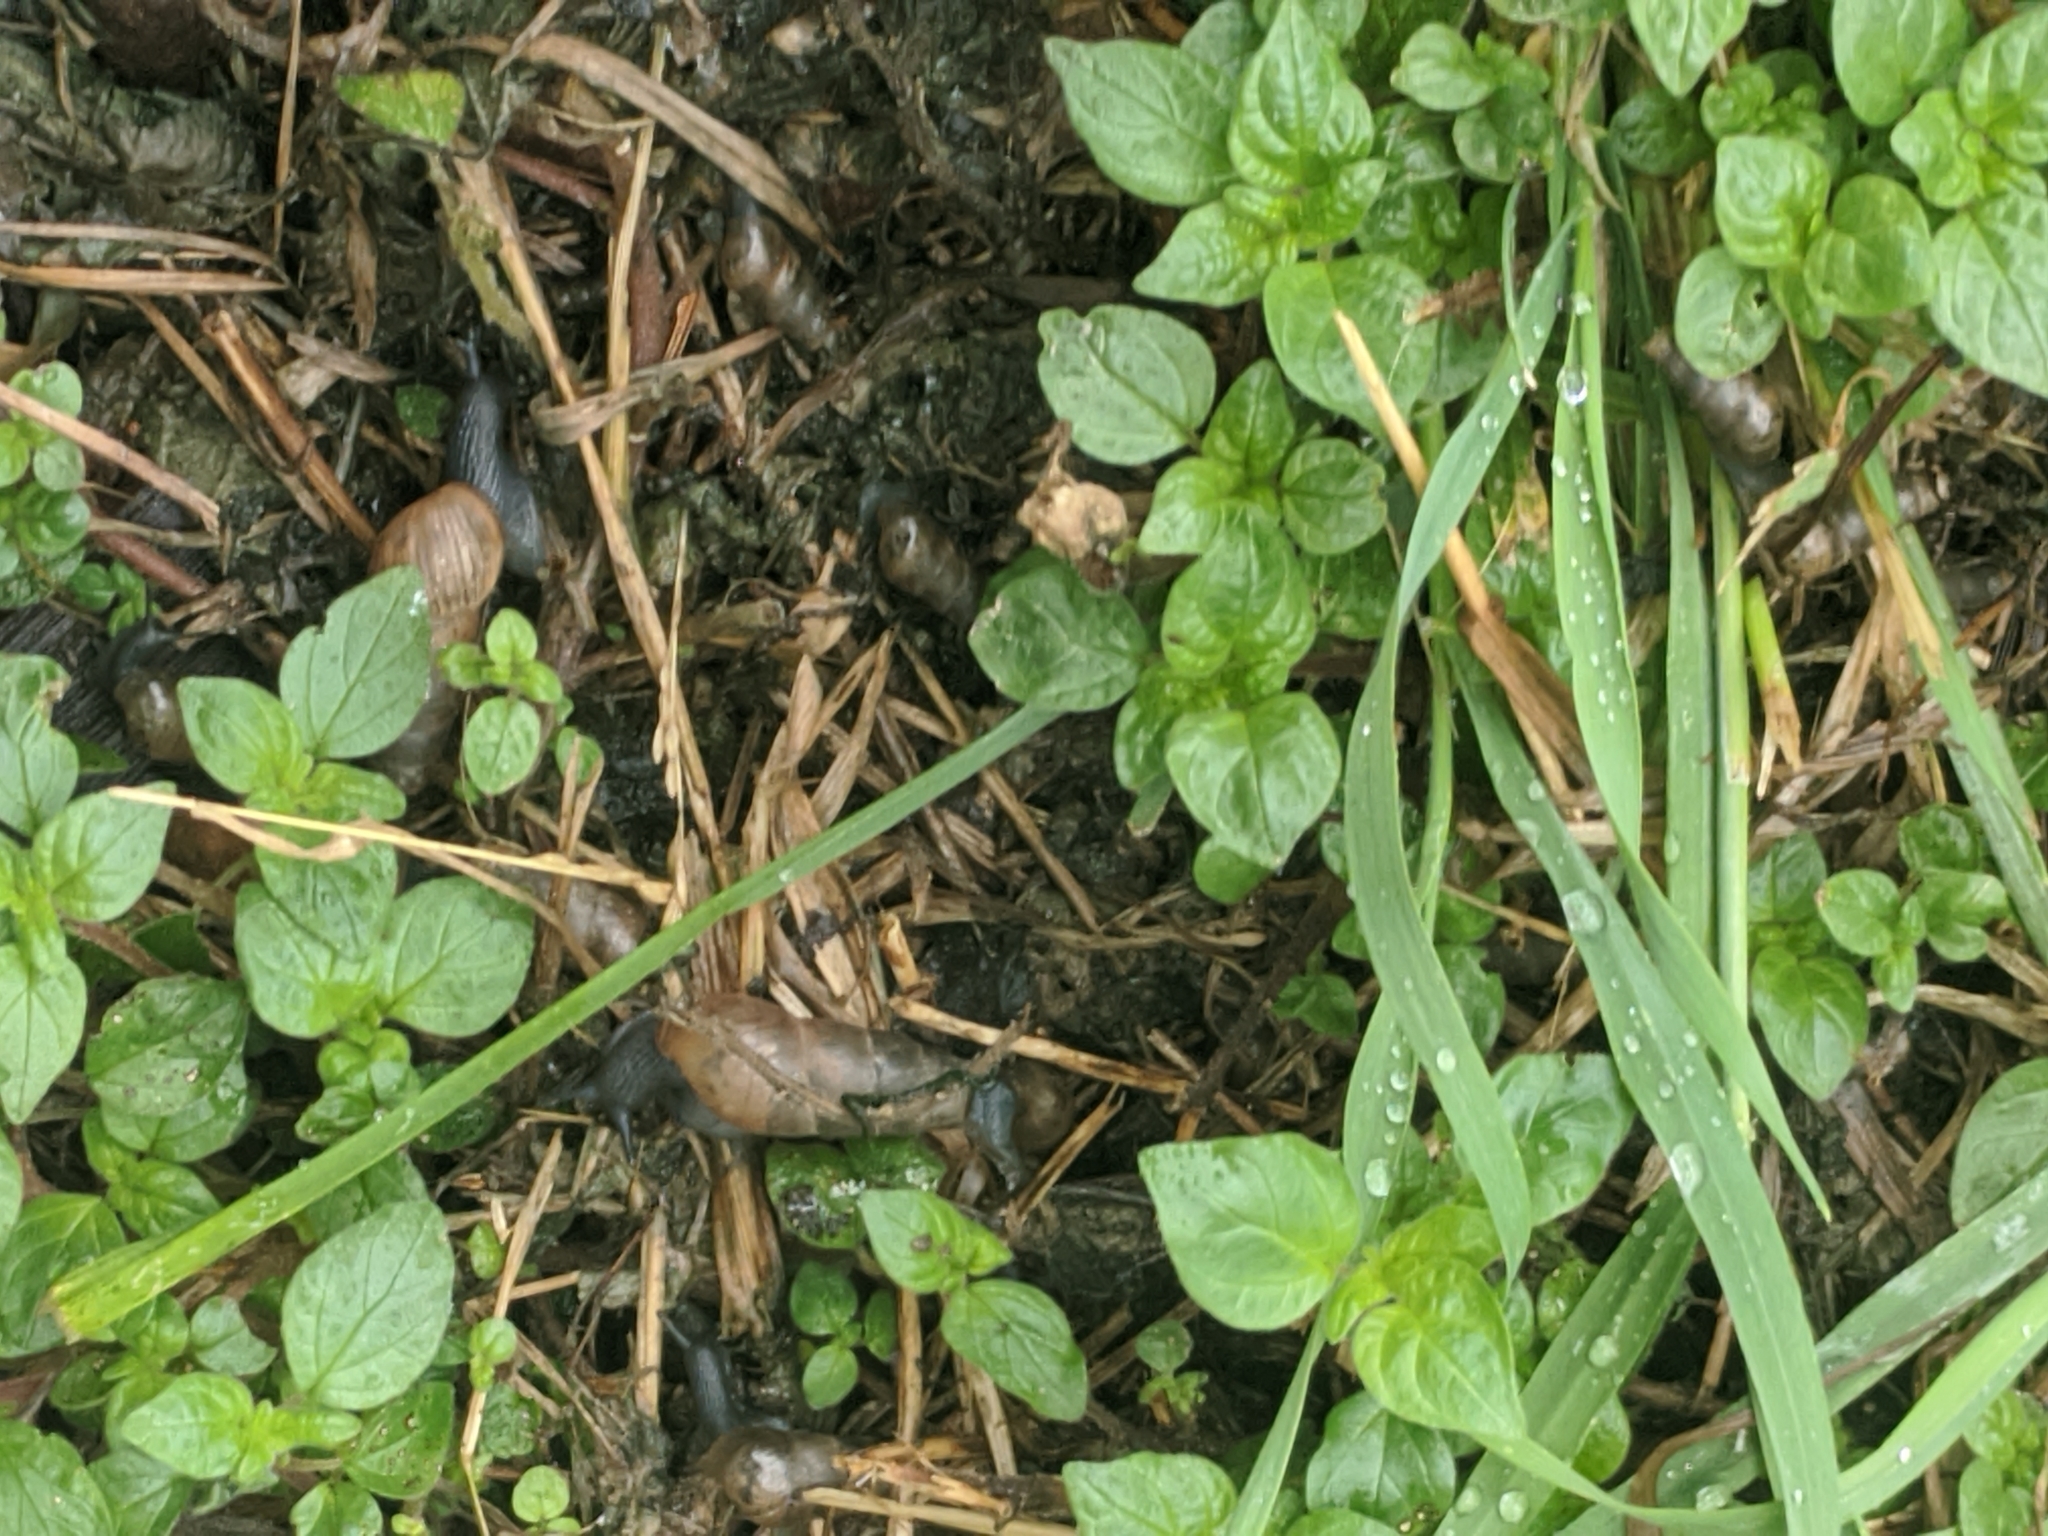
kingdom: Animalia
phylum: Mollusca
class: Gastropoda
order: Stylommatophora
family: Achatinidae
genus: Rumina
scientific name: Rumina decollata
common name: Decollate snail
